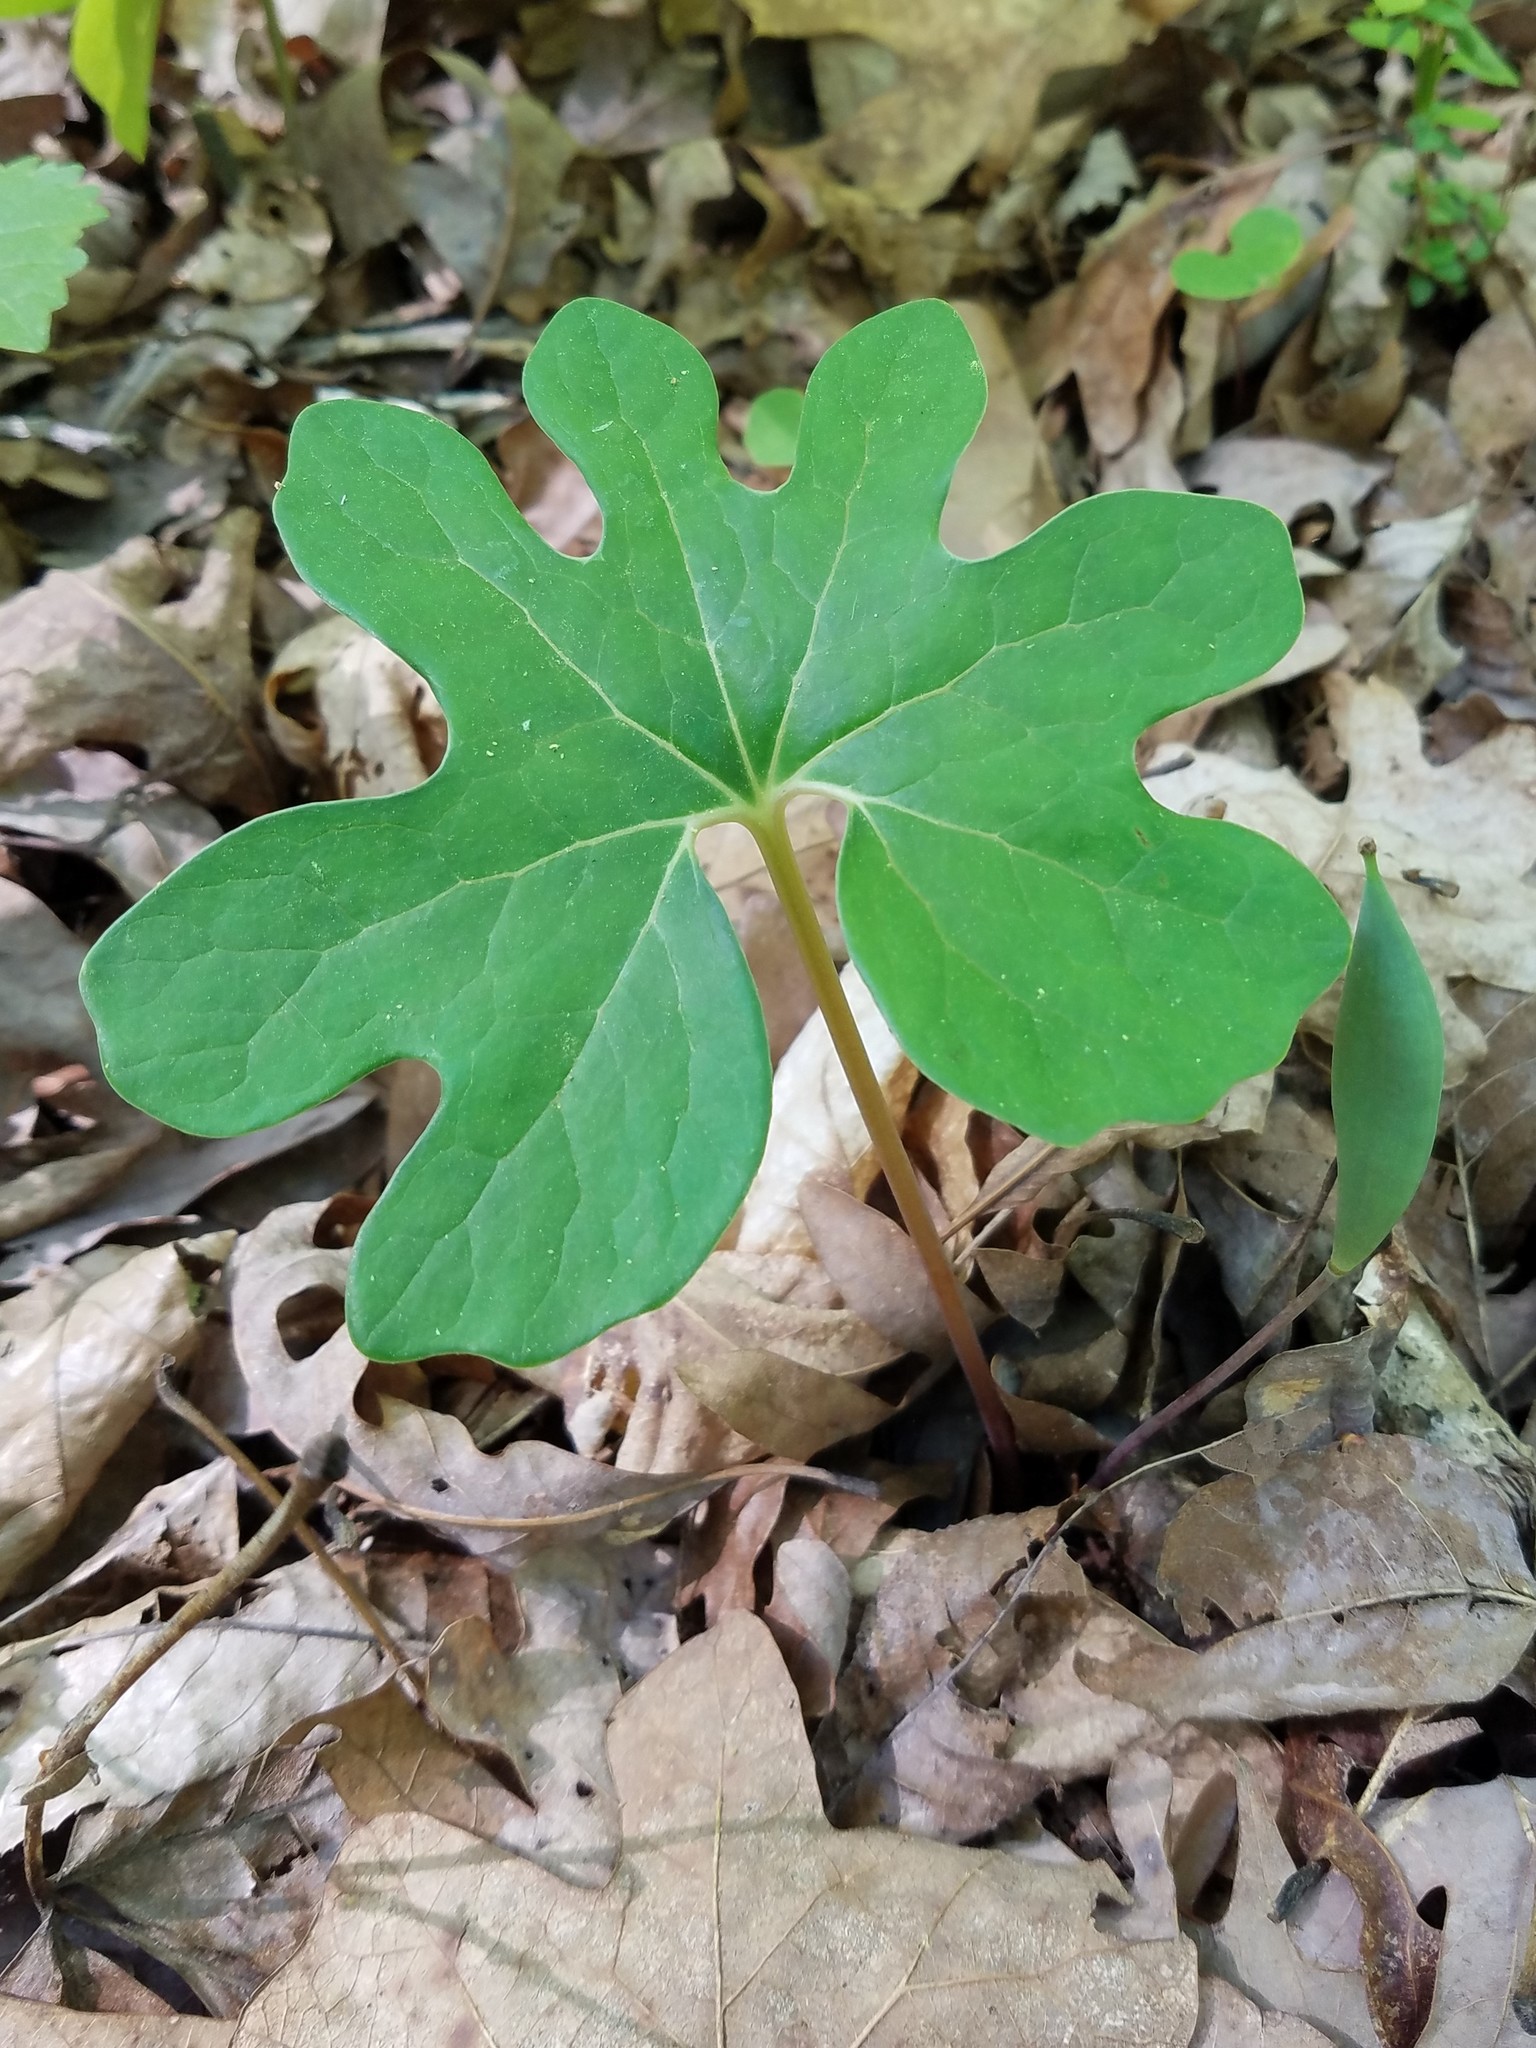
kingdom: Plantae
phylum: Tracheophyta
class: Magnoliopsida
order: Ranunculales
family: Papaveraceae
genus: Sanguinaria
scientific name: Sanguinaria canadensis
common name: Bloodroot
